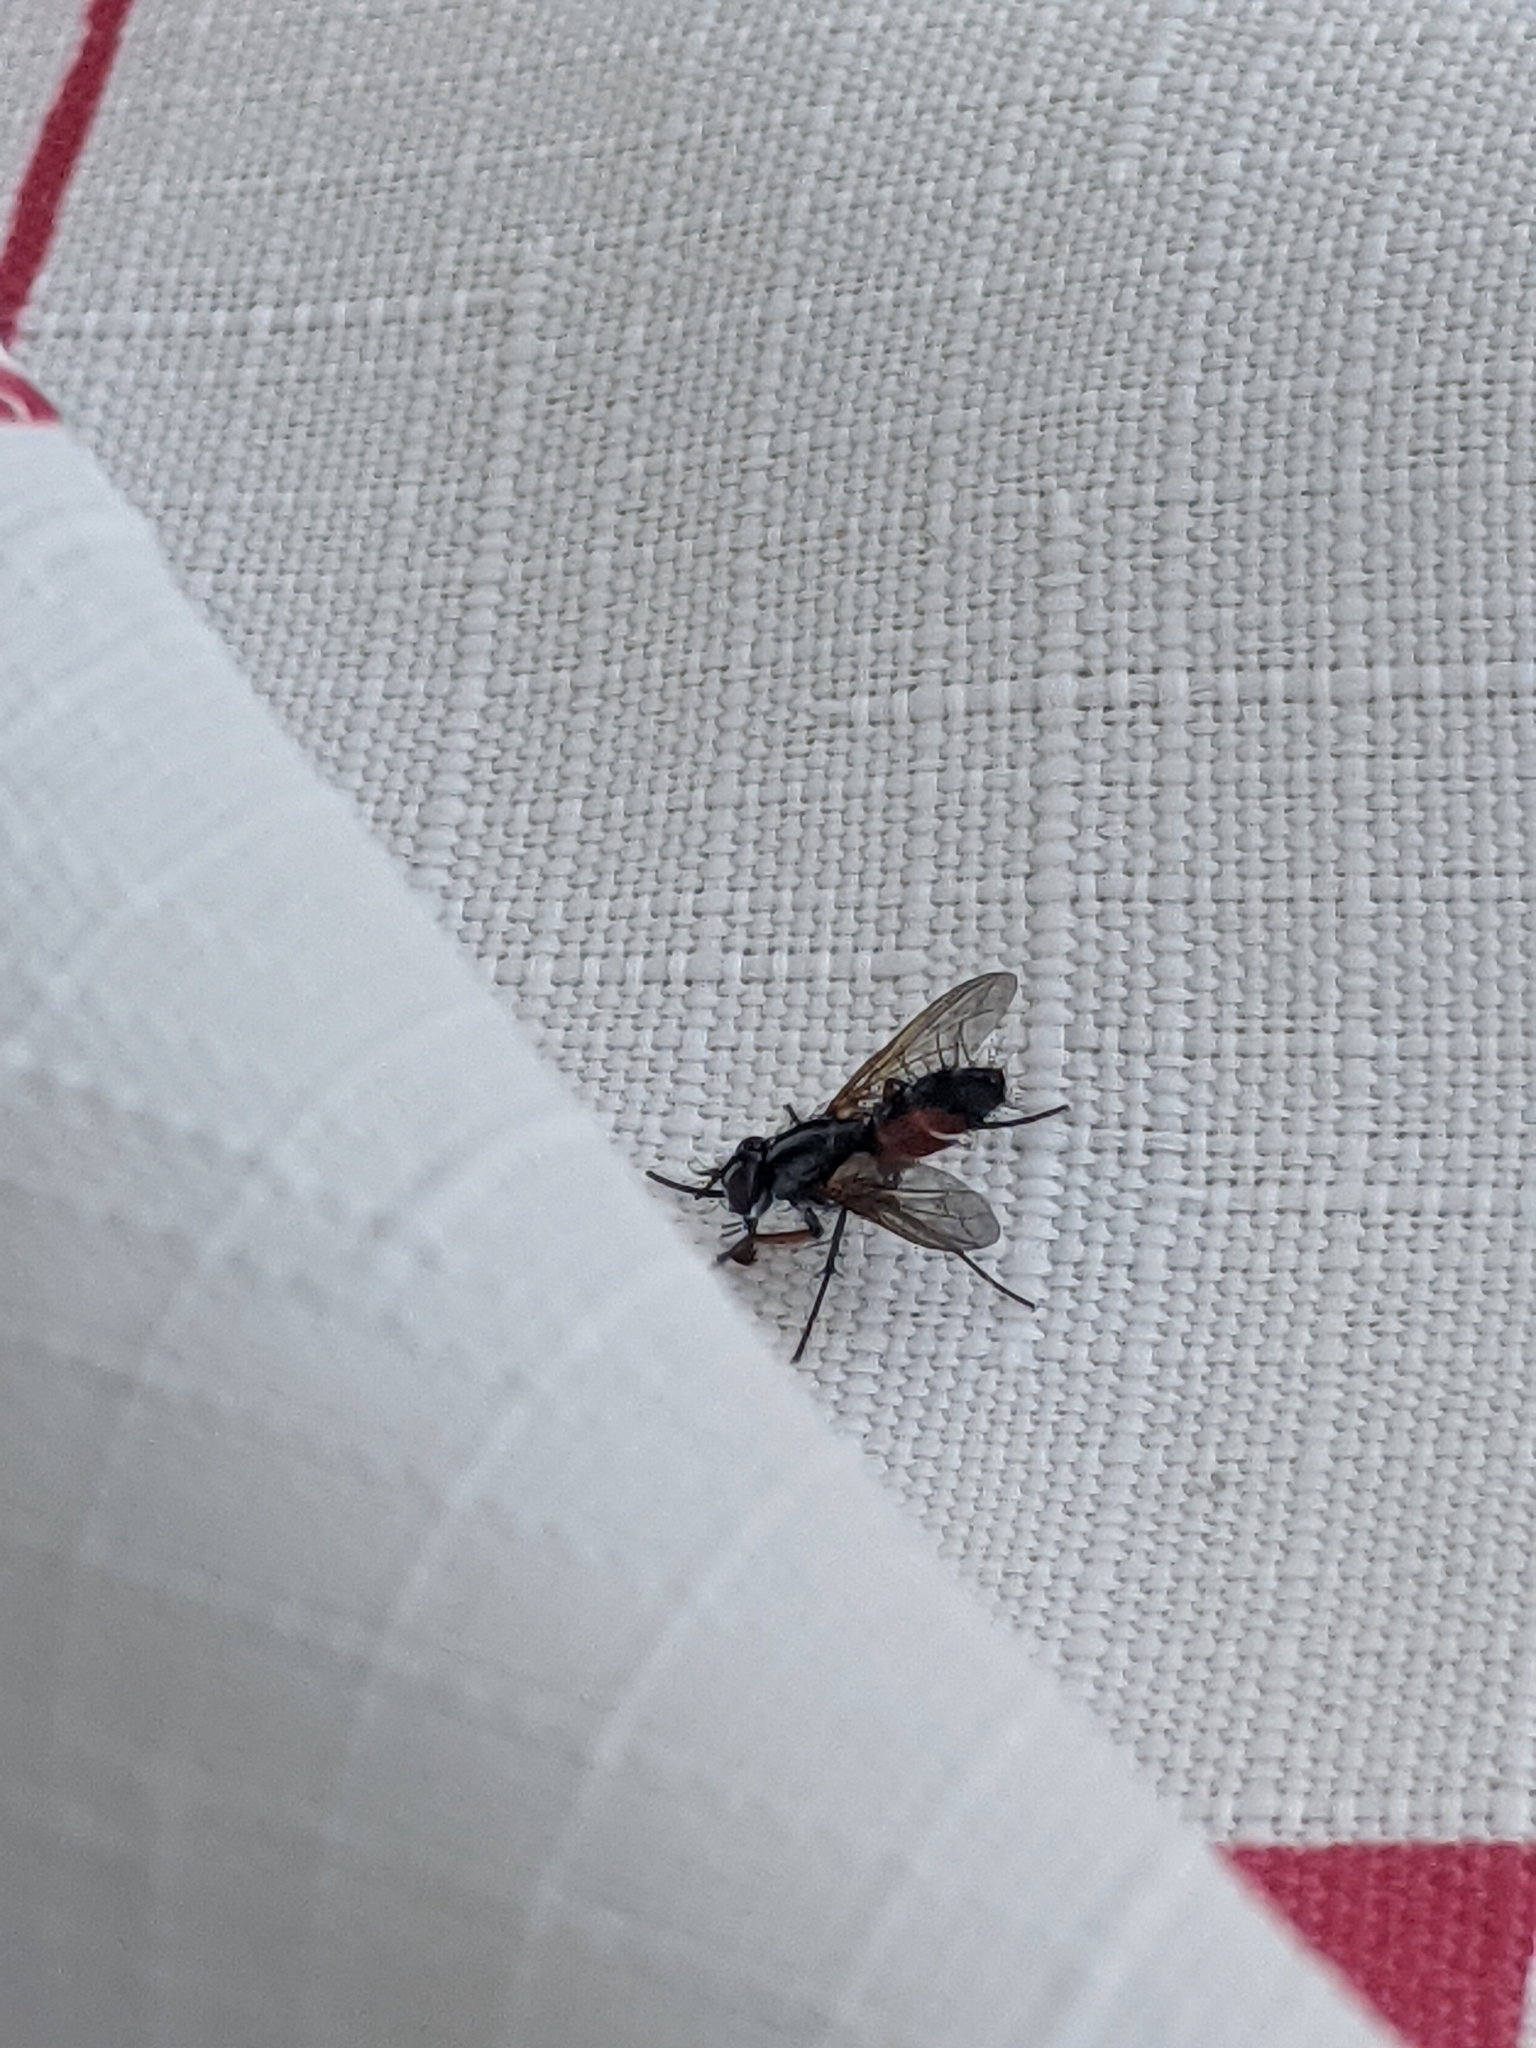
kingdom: Animalia
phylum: Arthropoda
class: Insecta
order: Diptera
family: Tachinidae
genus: Mintho
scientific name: Mintho rufiventris
